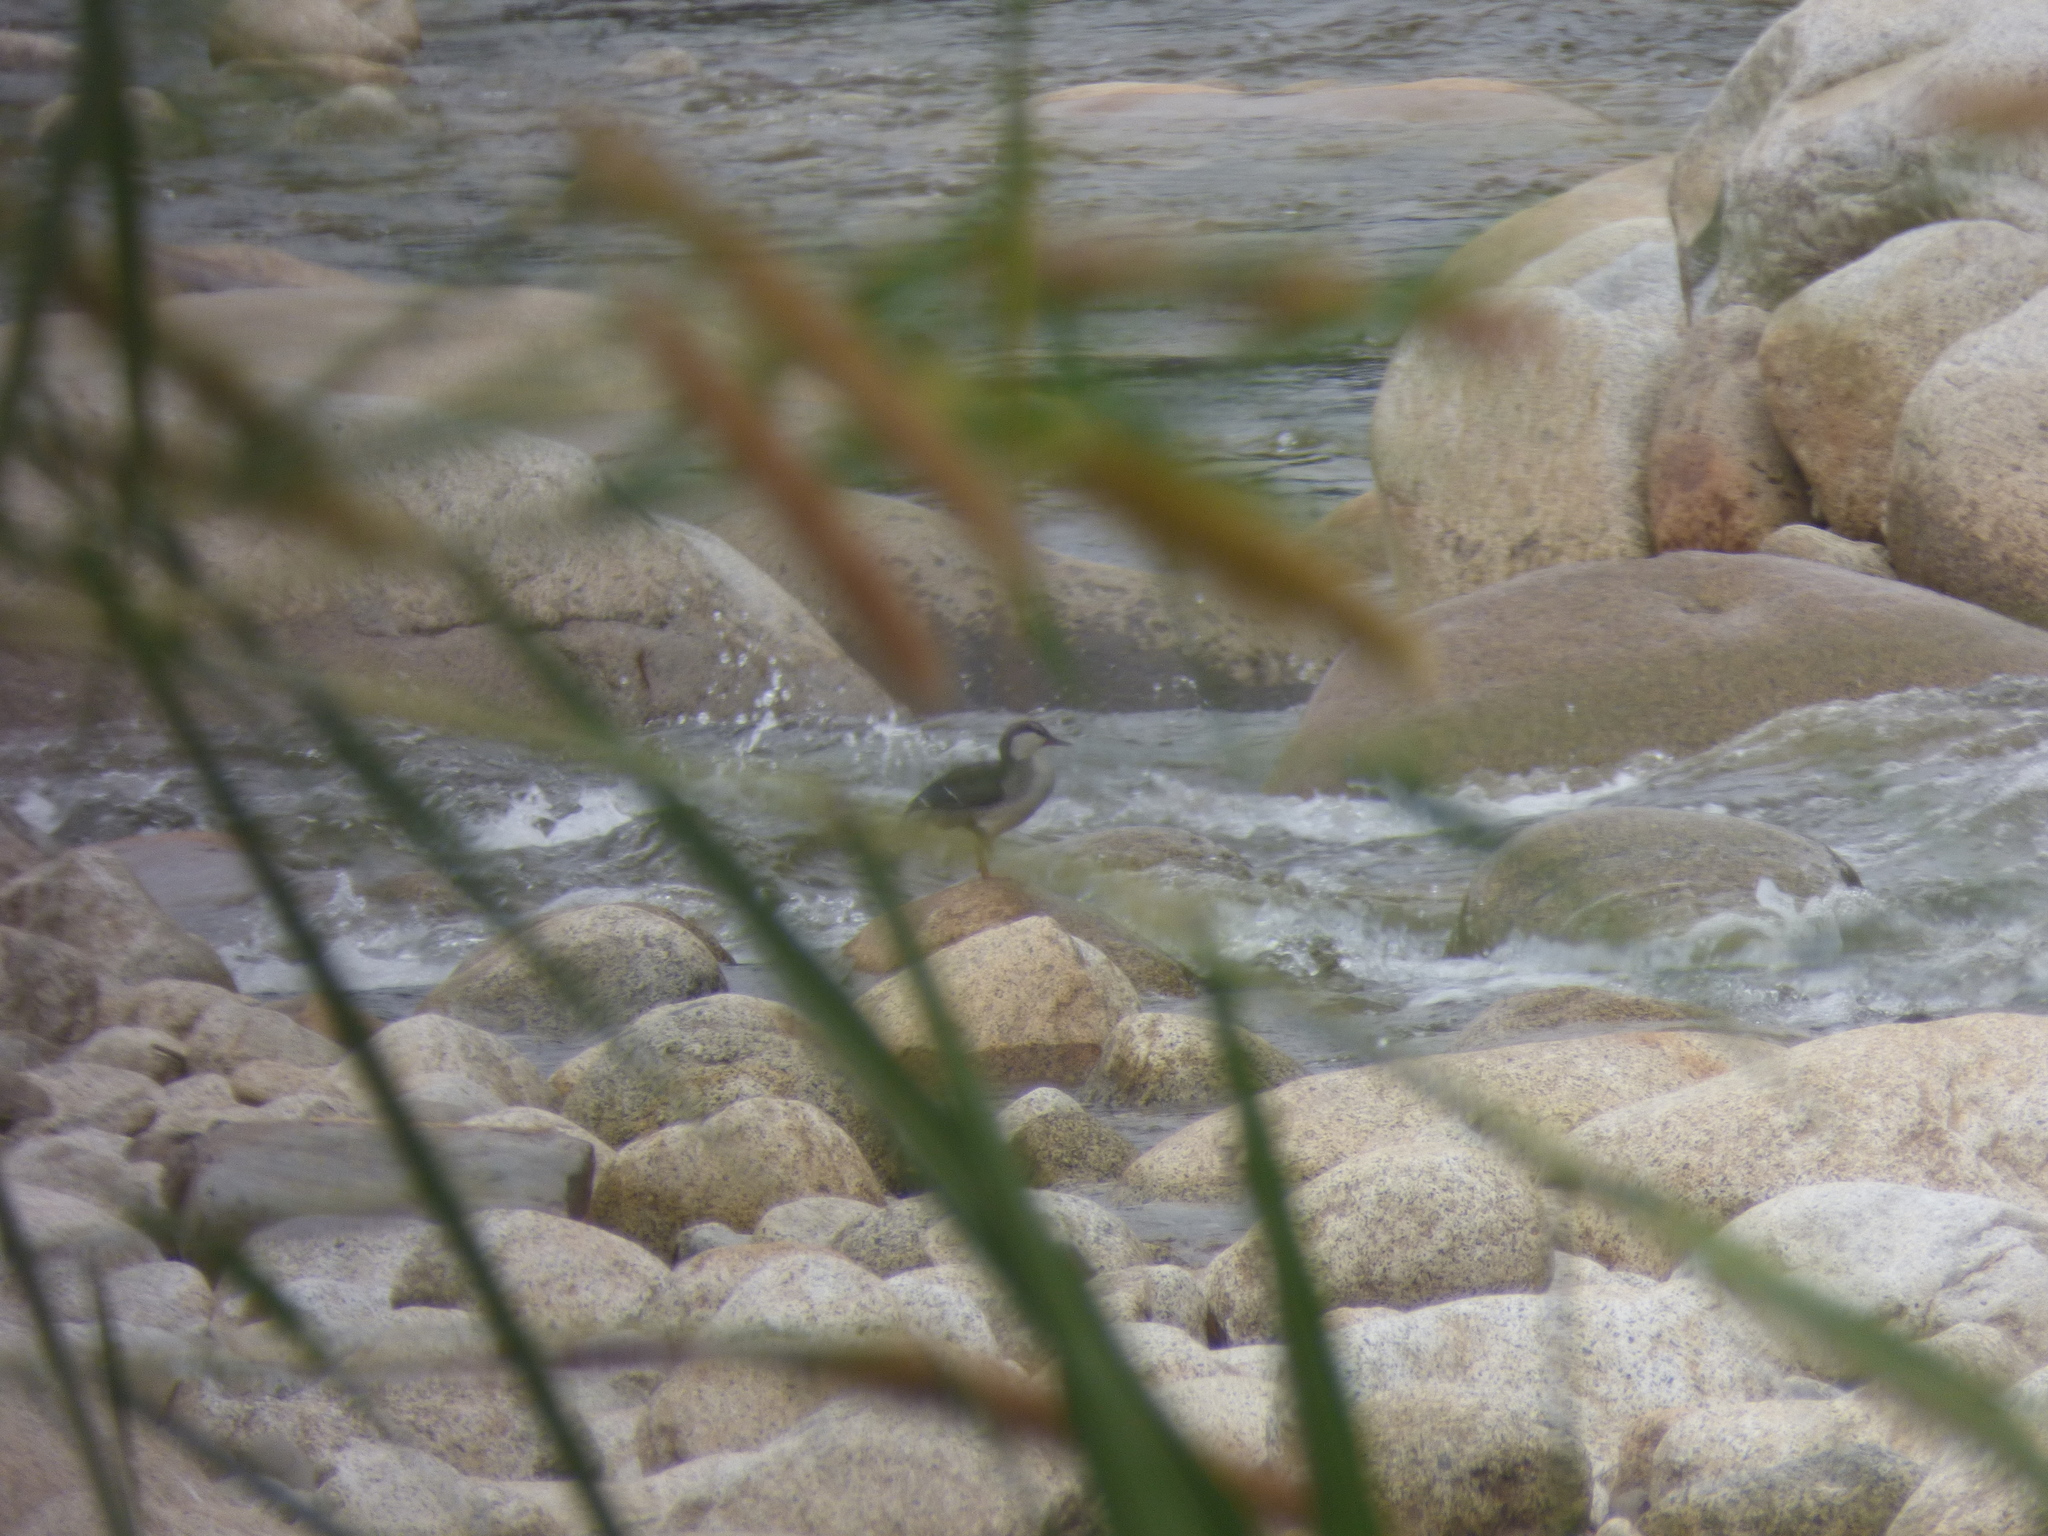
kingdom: Animalia
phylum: Chordata
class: Aves
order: Anseriformes
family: Anatidae
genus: Merganetta
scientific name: Merganetta armata
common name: Torrent duck
